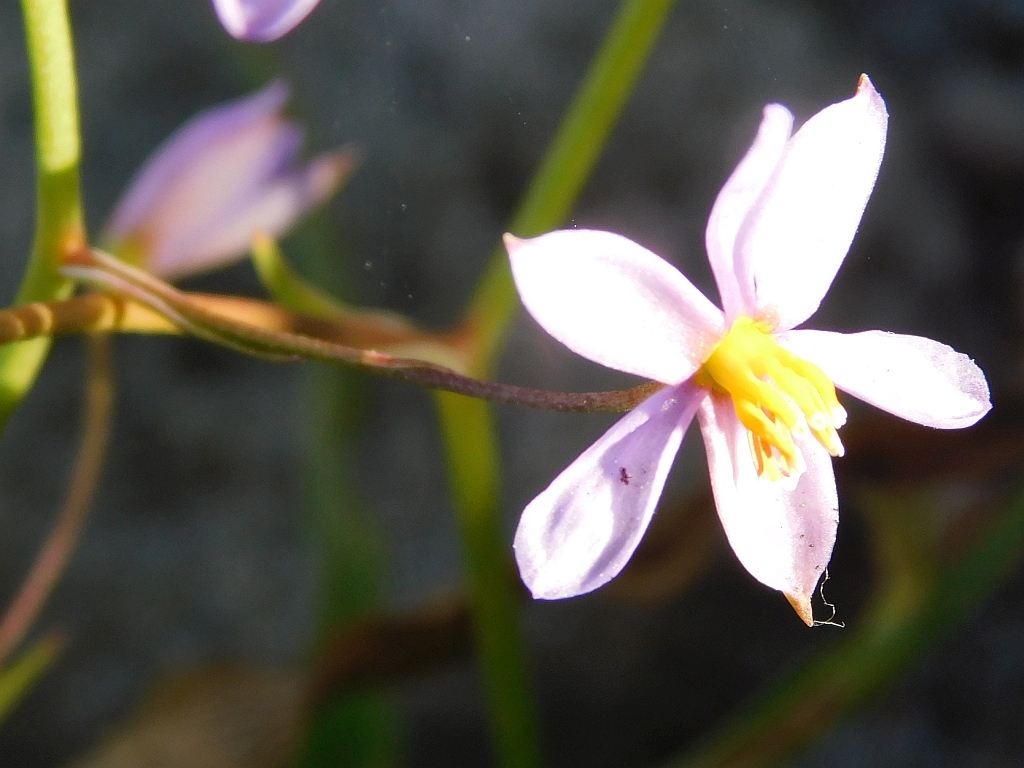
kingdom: Plantae
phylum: Tracheophyta
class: Liliopsida
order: Asparagales
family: Tecophilaeaceae
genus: Cyanella
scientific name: Cyanella hyacinthoides
